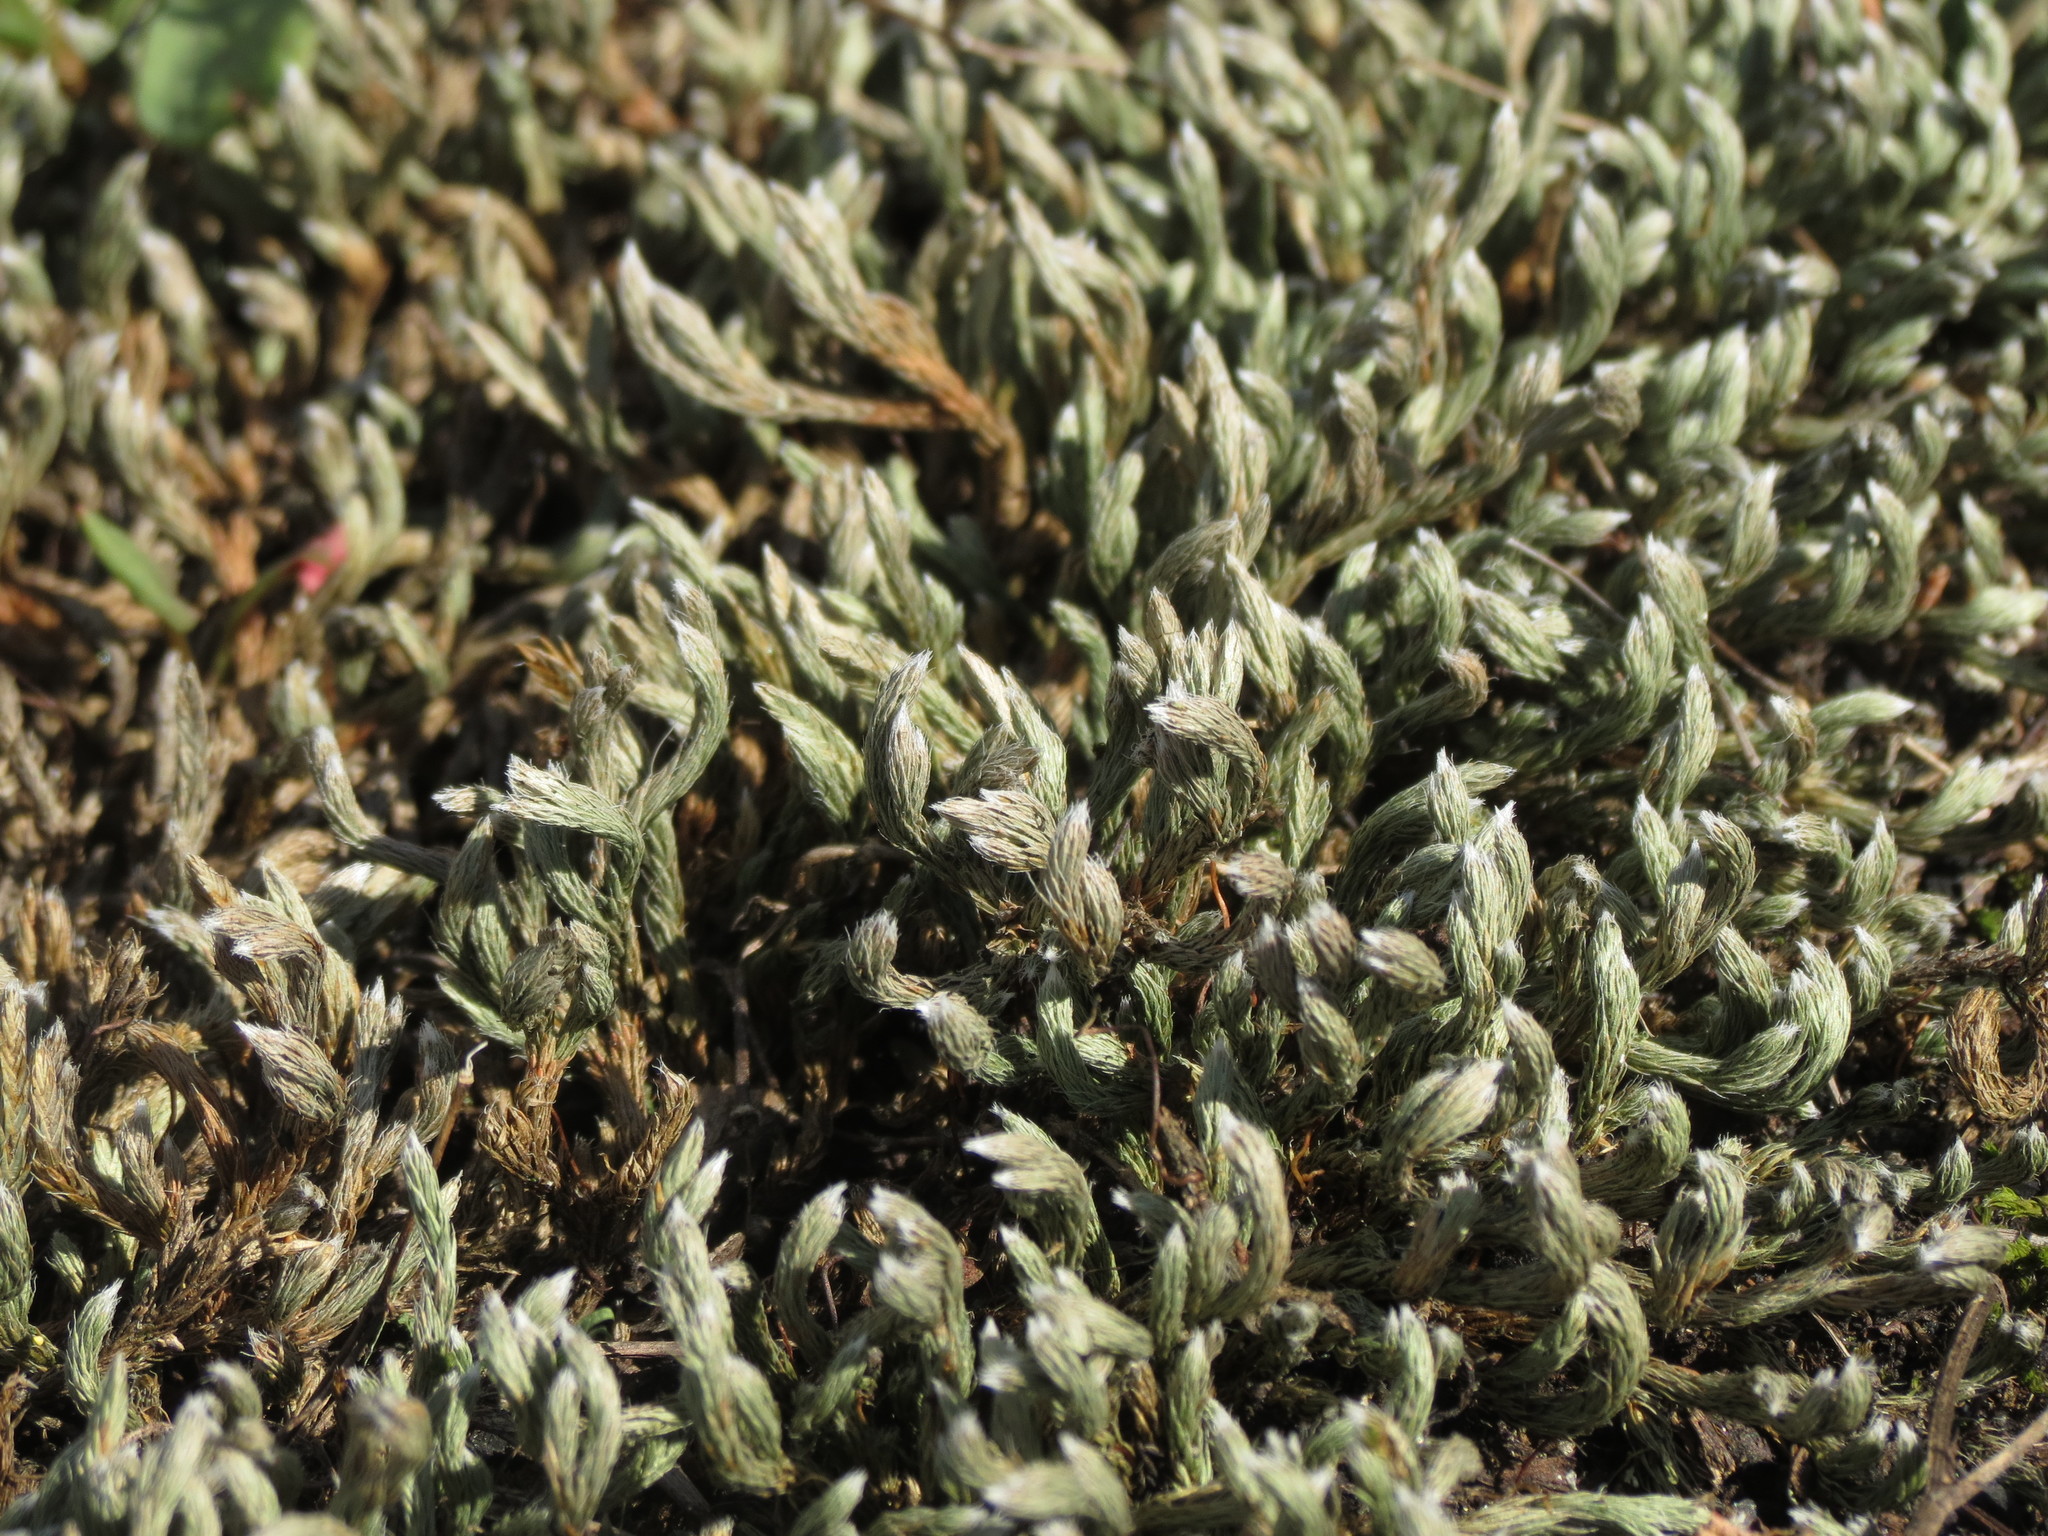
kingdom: Plantae
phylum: Tracheophyta
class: Lycopodiopsida
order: Selaginellales
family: Selaginellaceae
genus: Selaginella
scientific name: Selaginella rupestris
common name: Dwarf spikemoss
